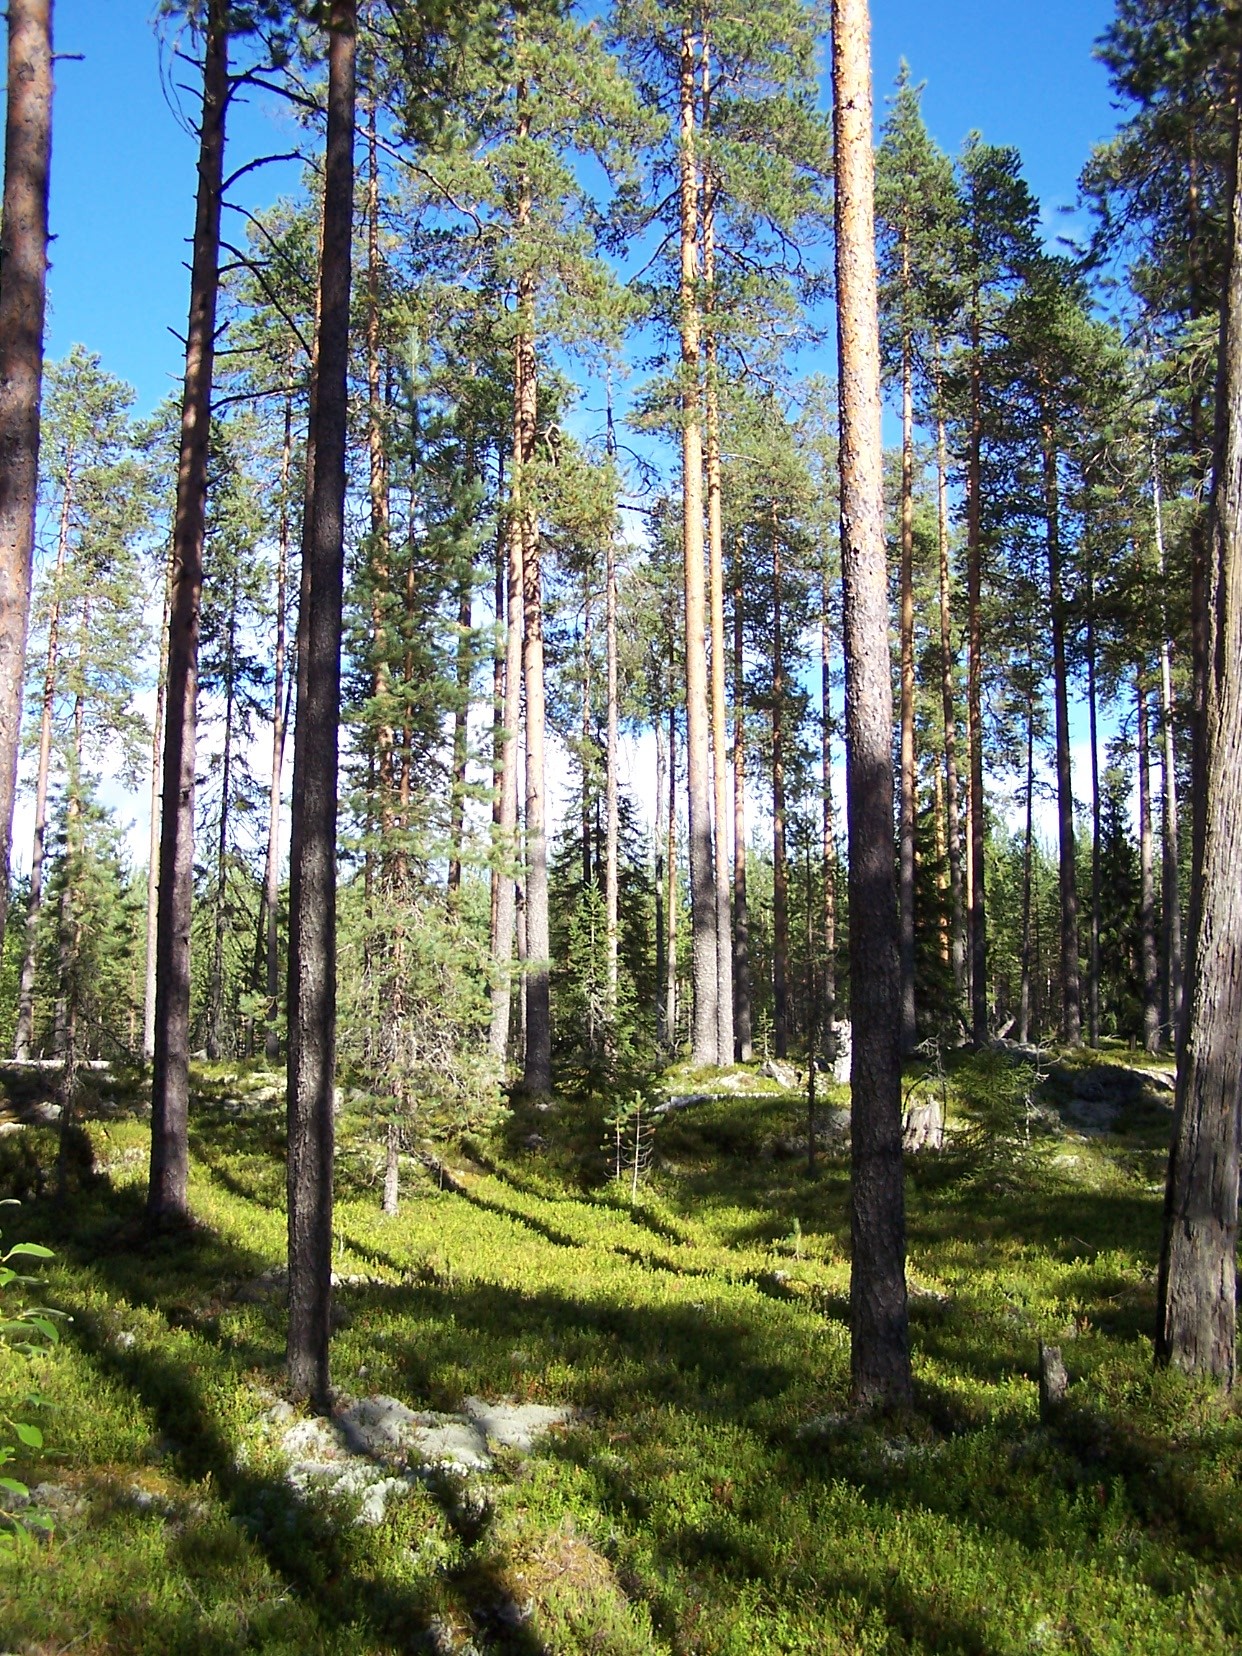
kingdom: Plantae
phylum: Tracheophyta
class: Pinopsida
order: Pinales
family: Pinaceae
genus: Pinus
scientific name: Pinus sylvestris
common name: Scots pine
